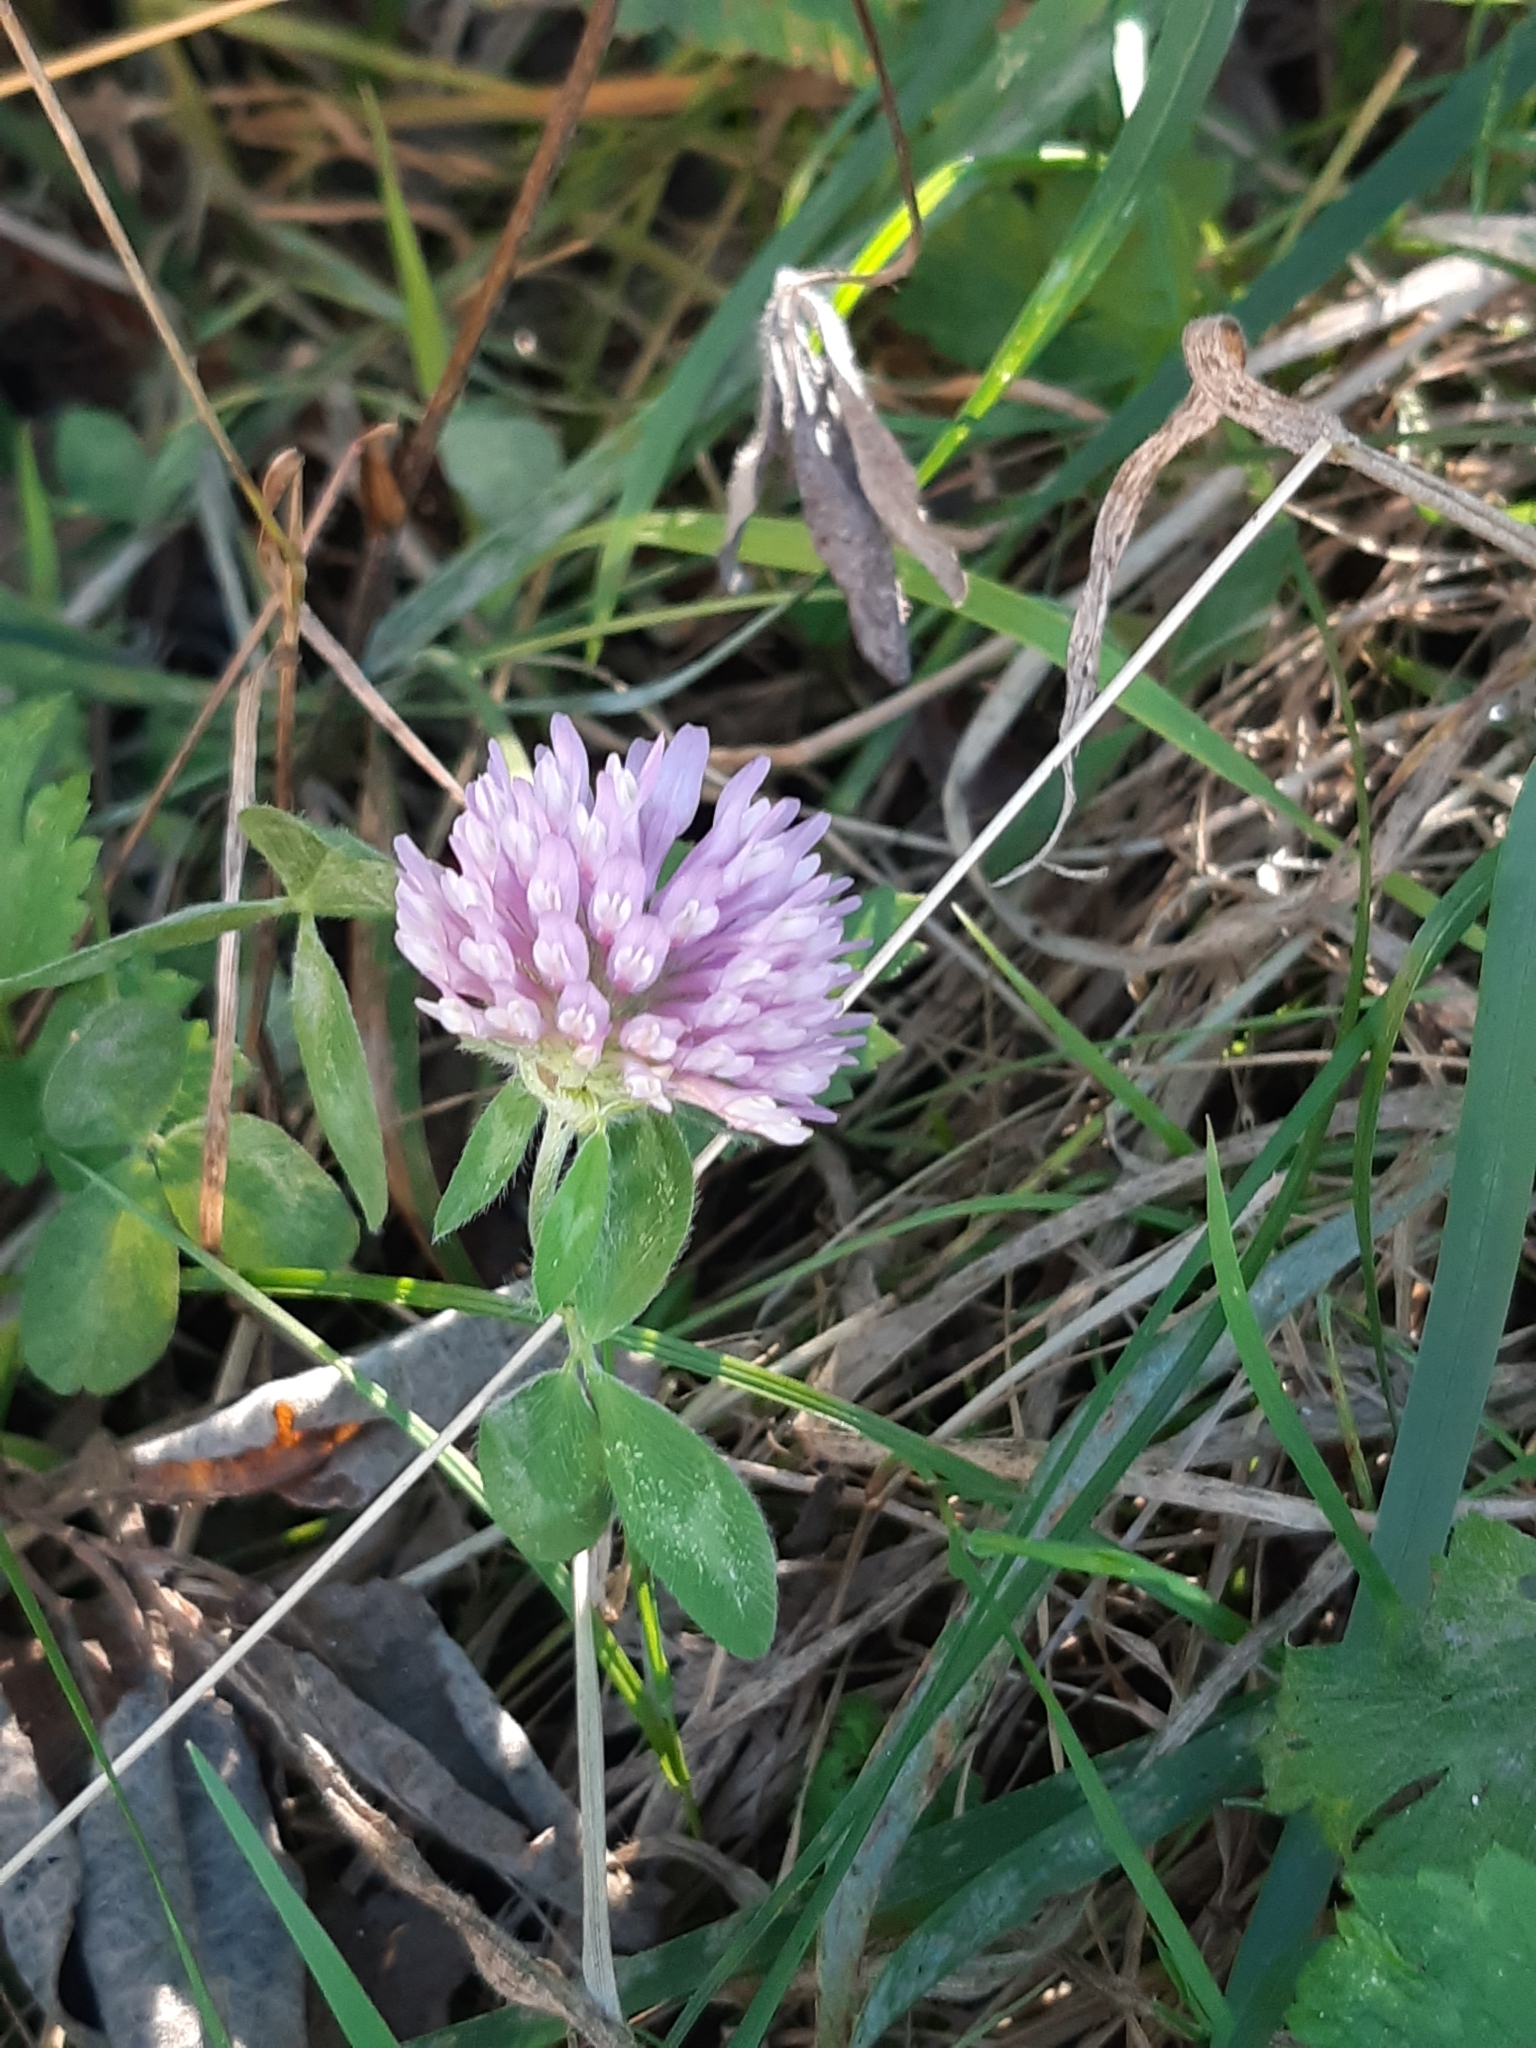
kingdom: Plantae
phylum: Tracheophyta
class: Magnoliopsida
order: Fabales
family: Fabaceae
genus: Trifolium
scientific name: Trifolium pratense
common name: Red clover
